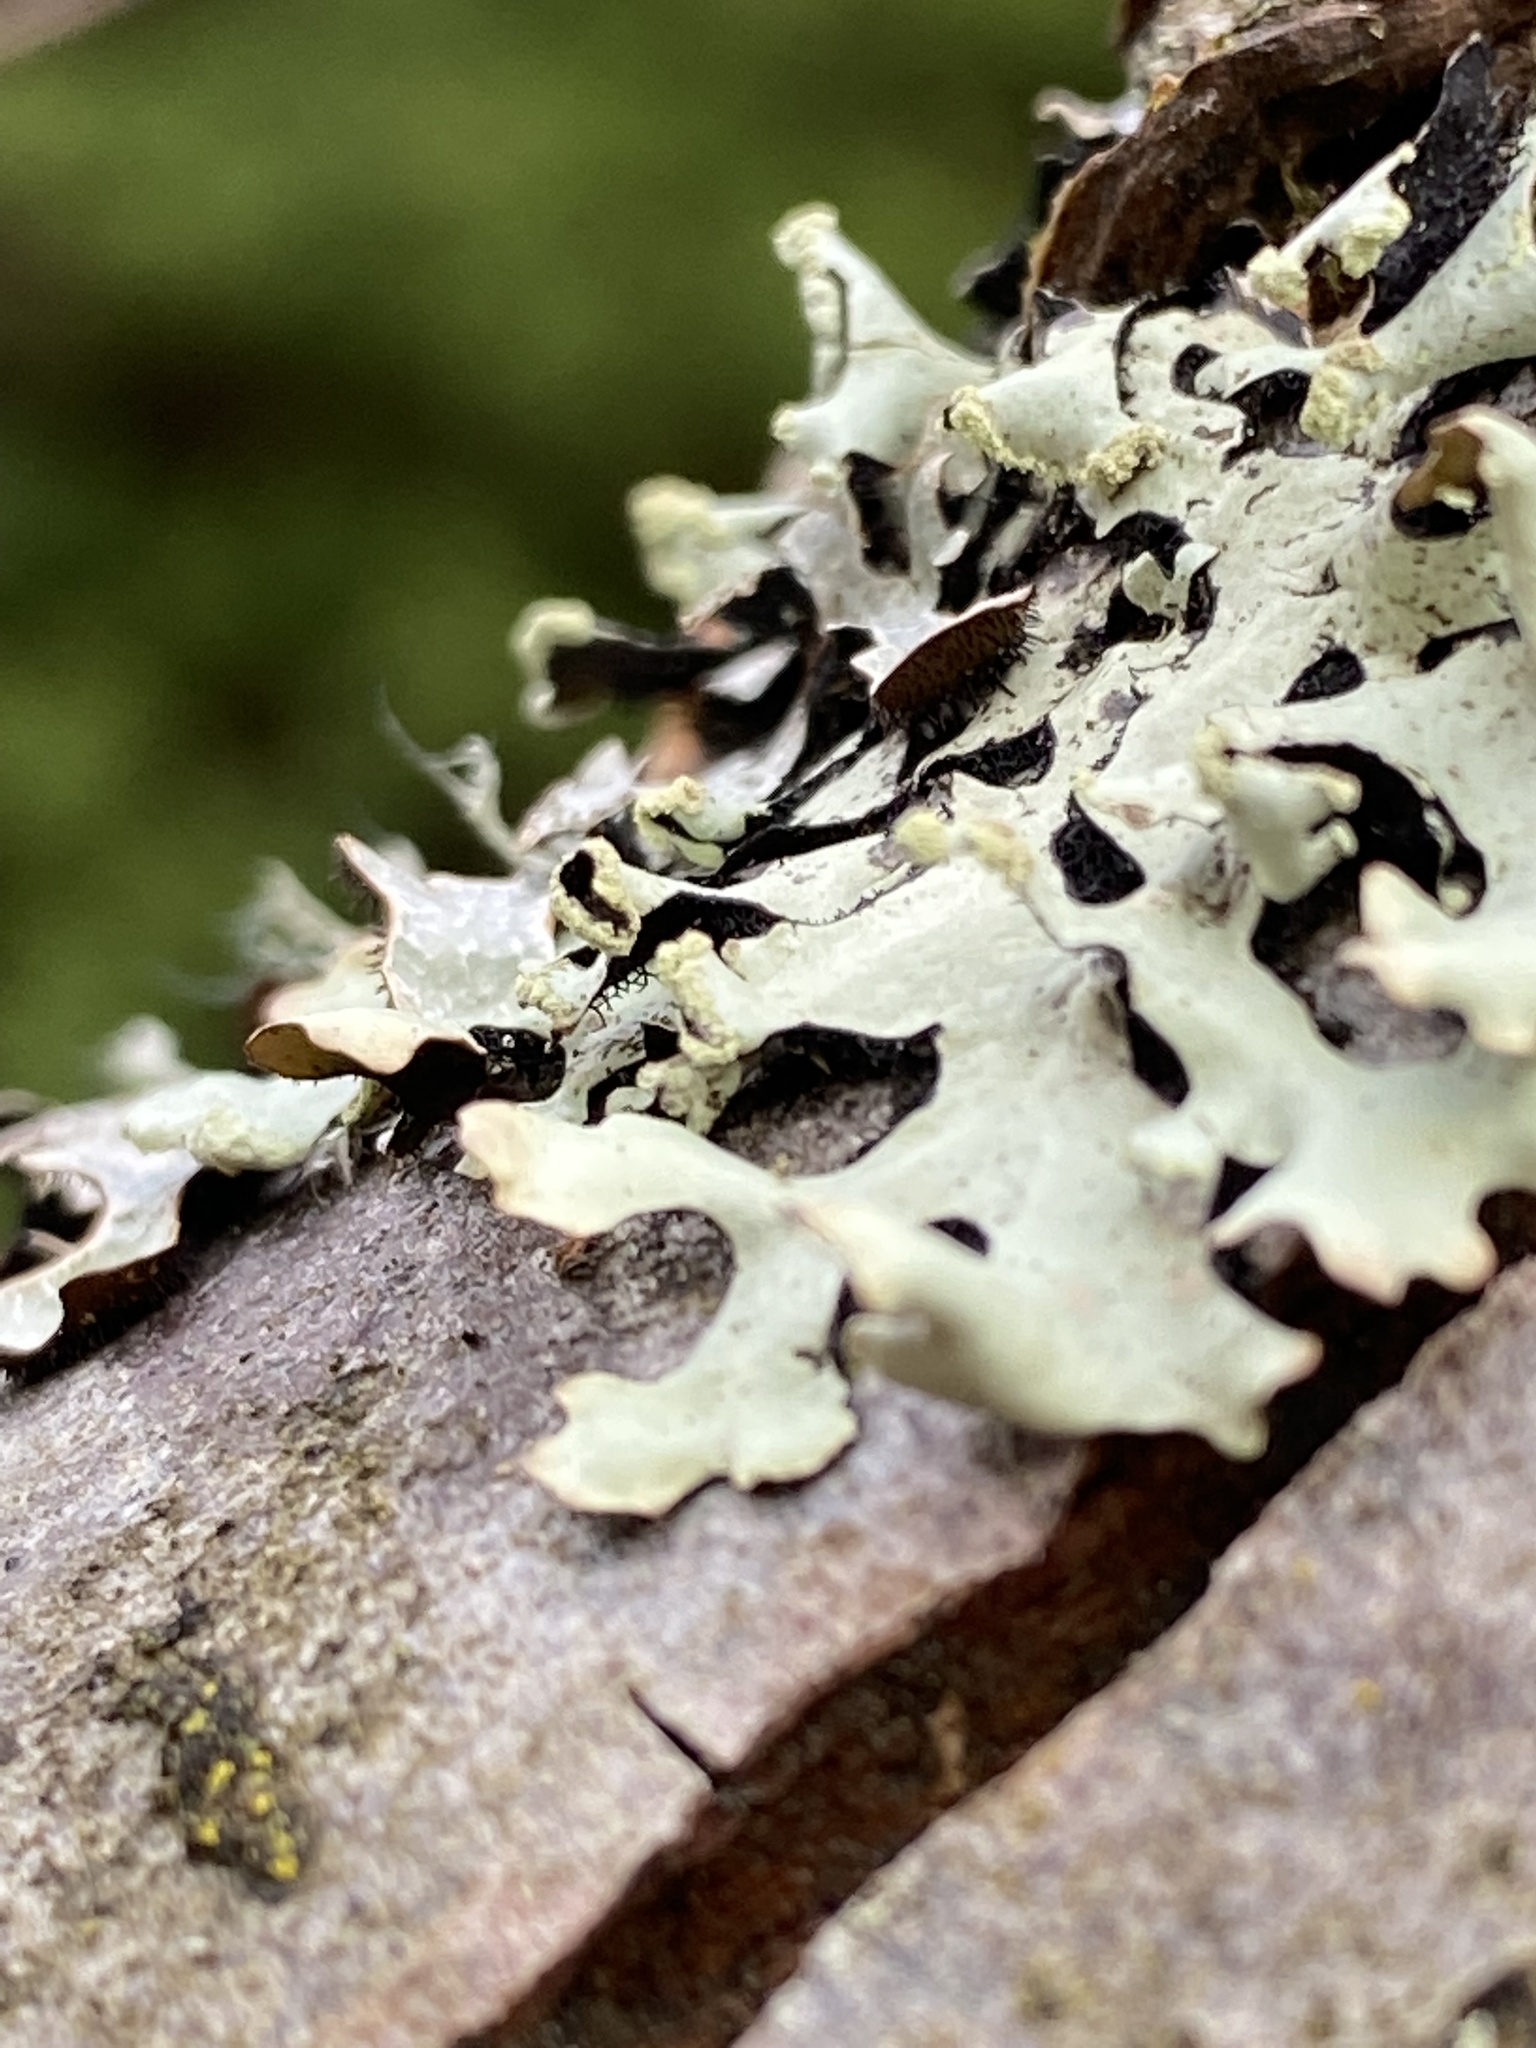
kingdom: Fungi
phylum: Ascomycota
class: Lecanoromycetes
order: Lecanorales
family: Parmeliaceae
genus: Hypotrachyna
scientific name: Hypotrachyna sinuosa
